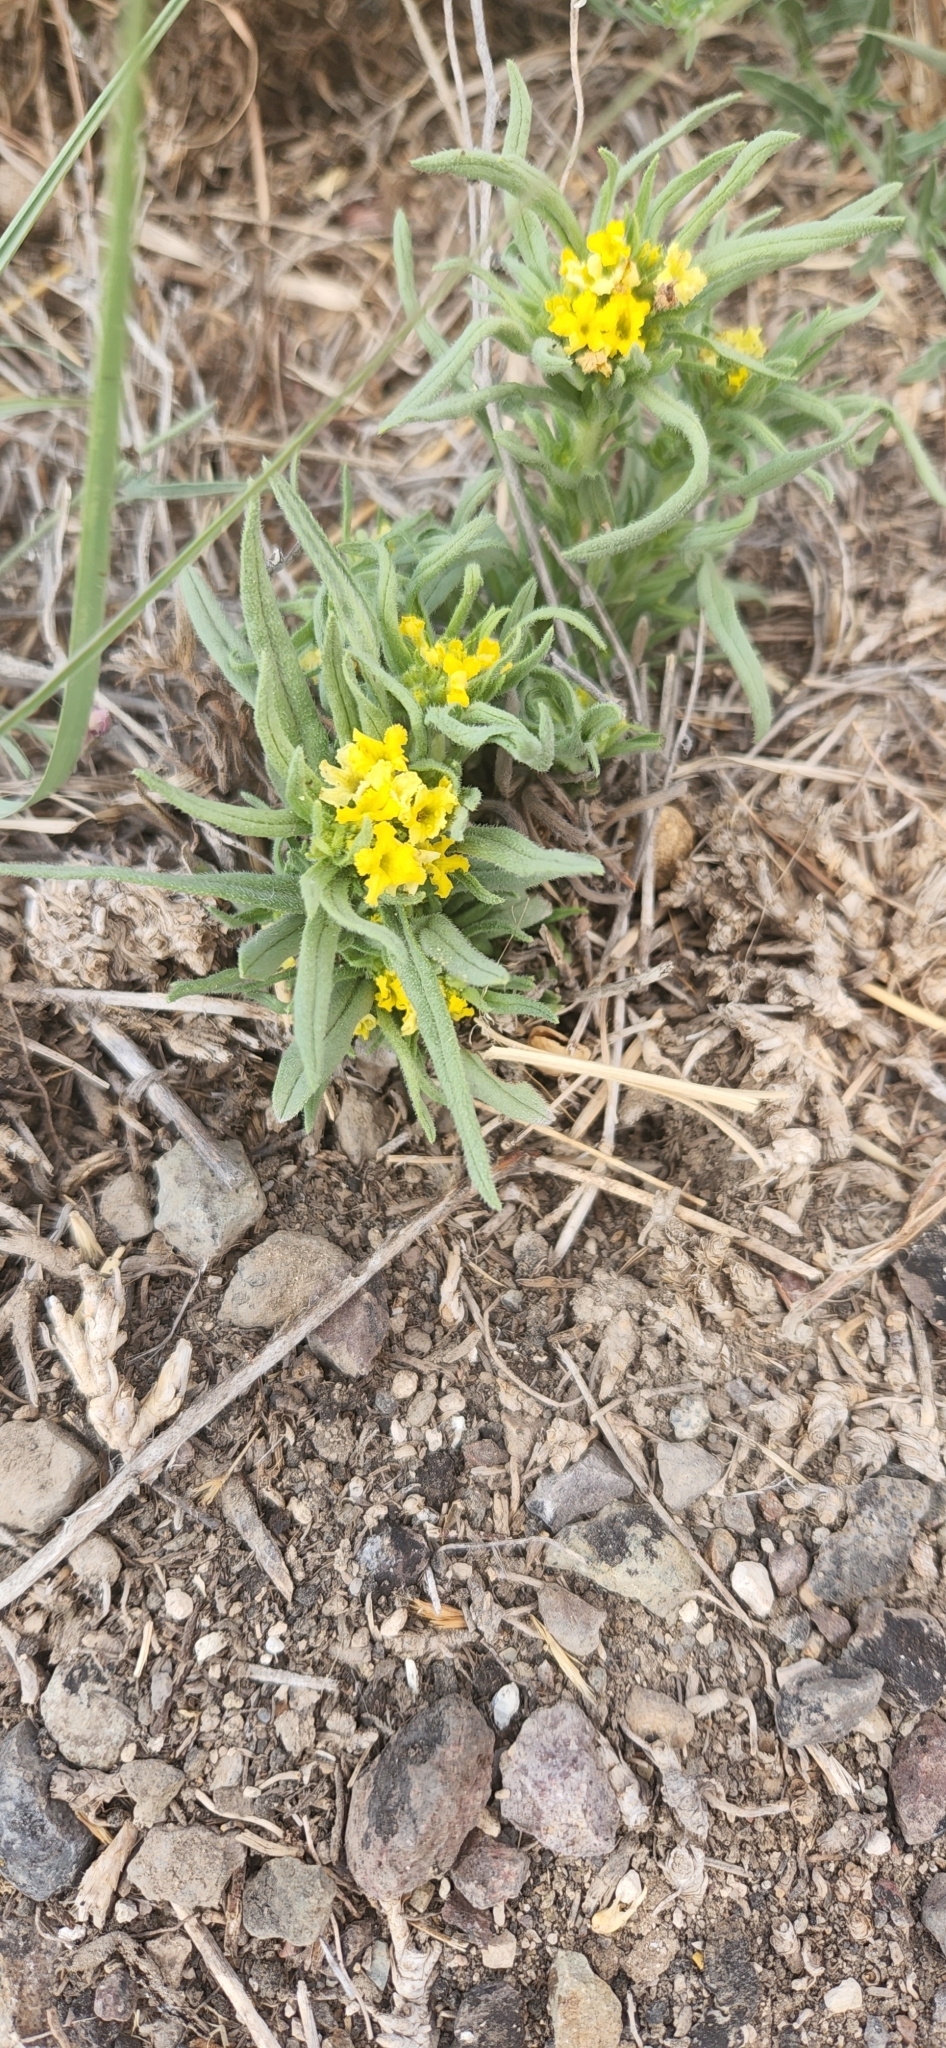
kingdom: Plantae
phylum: Tracheophyta
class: Magnoliopsida
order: Boraginales
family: Boraginaceae
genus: Lithospermum
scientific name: Lithospermum incisum
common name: Fringed gromwell
